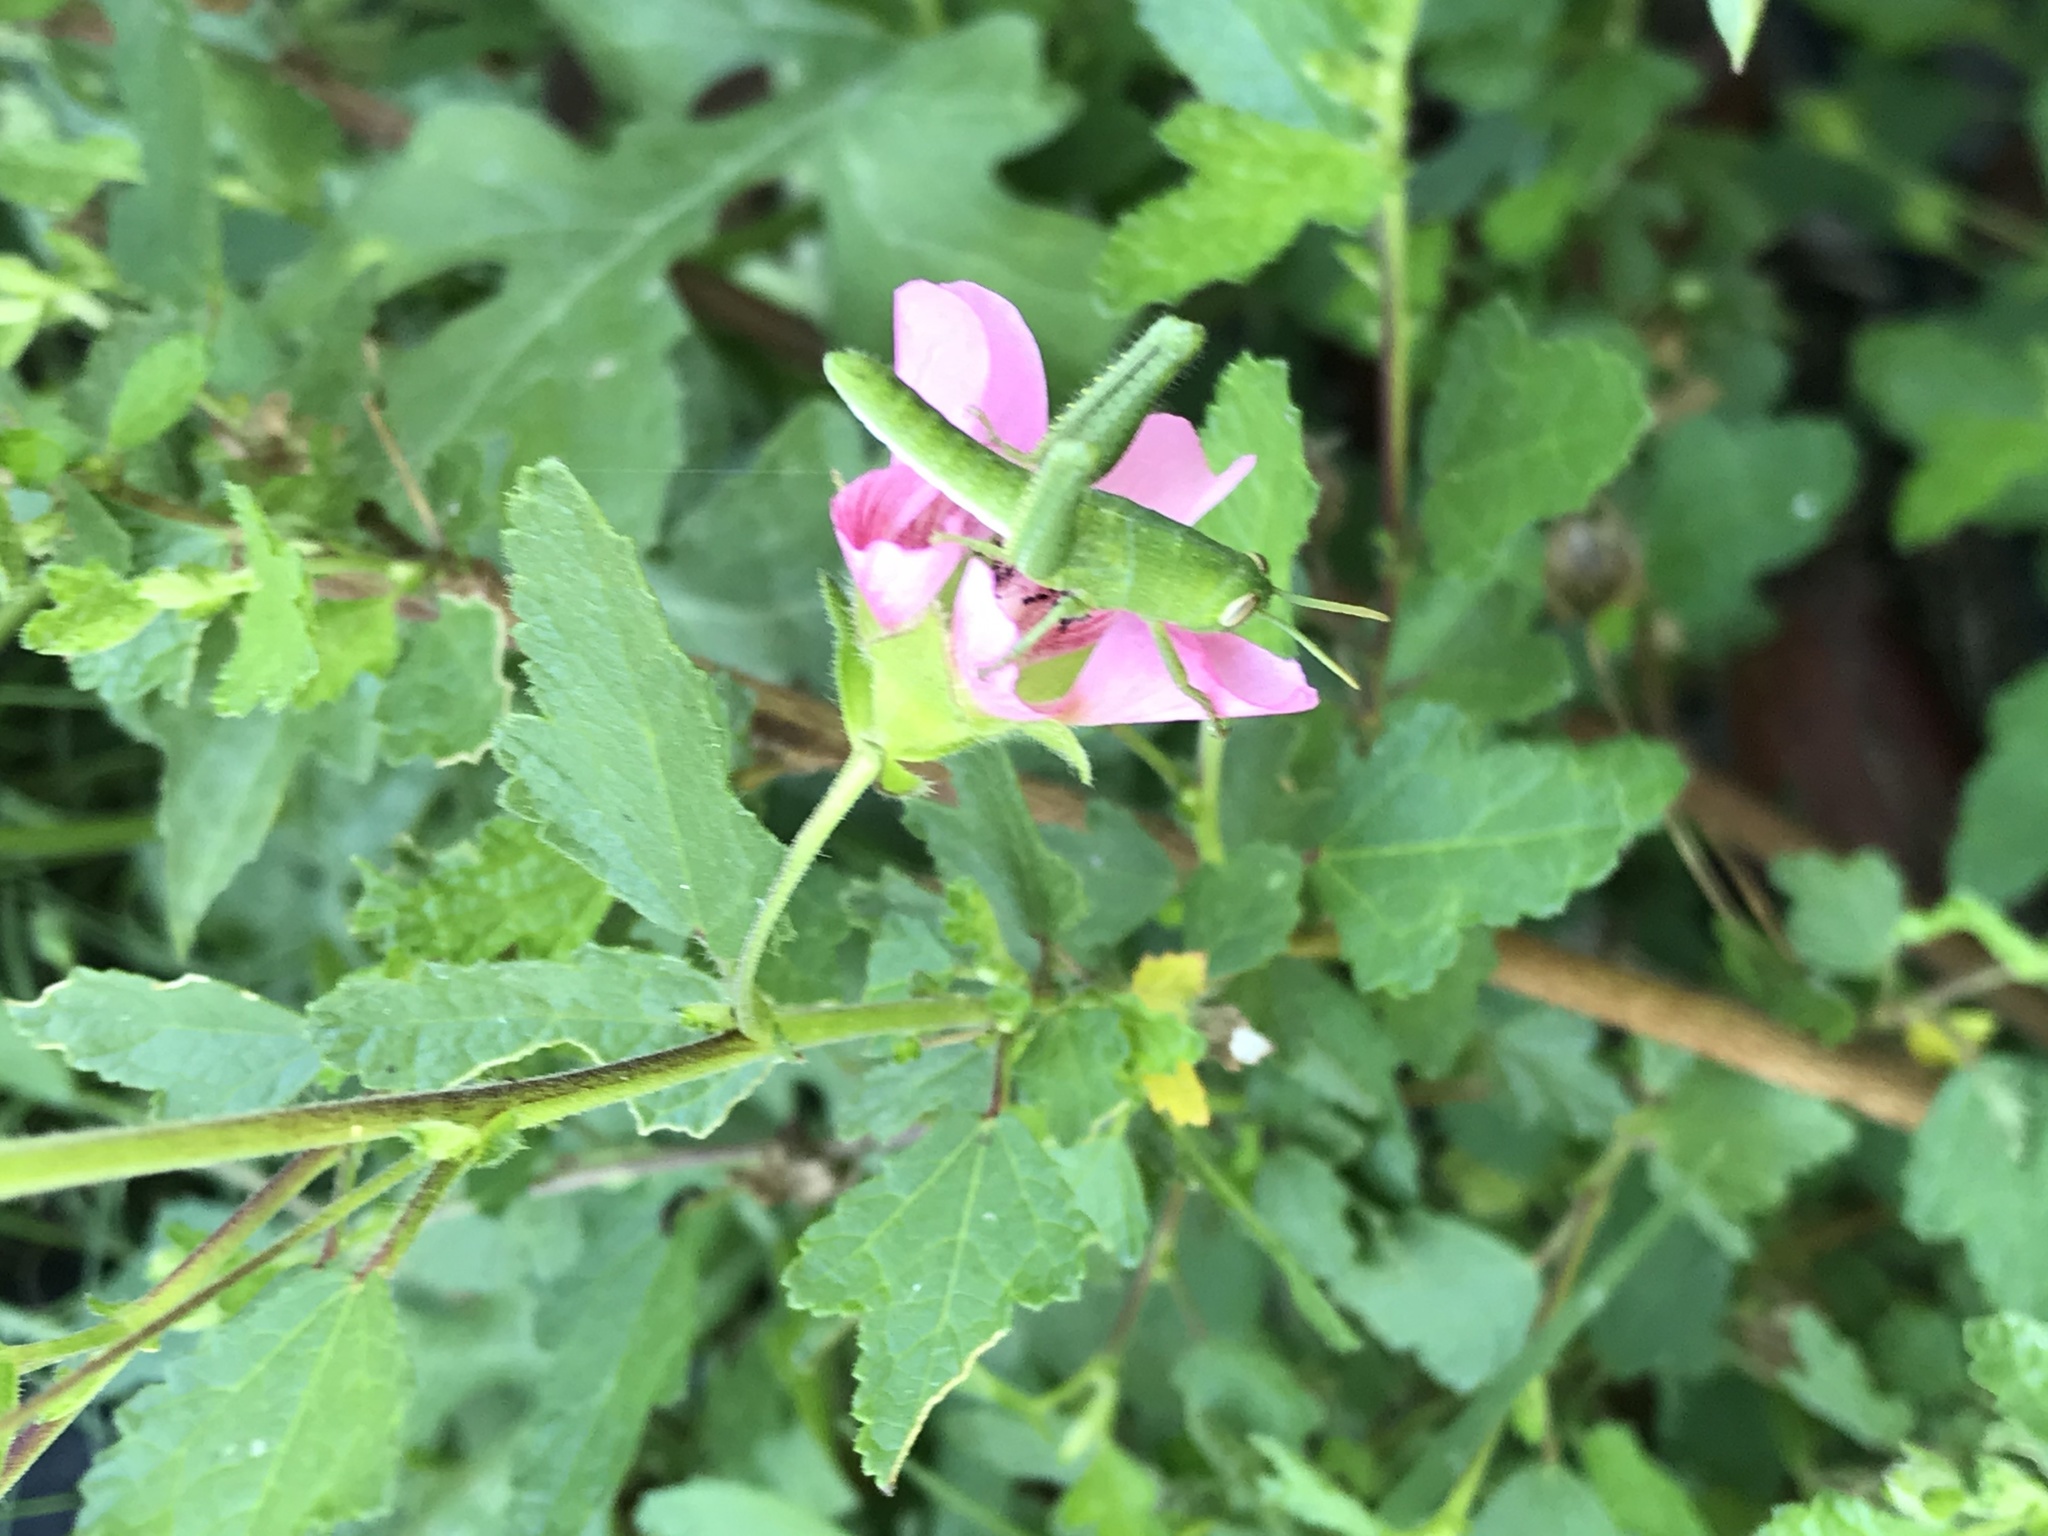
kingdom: Animalia
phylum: Arthropoda
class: Insecta
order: Orthoptera
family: Acrididae
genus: Schistocerca
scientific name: Schistocerca nitens
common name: Vagrant grasshopper
